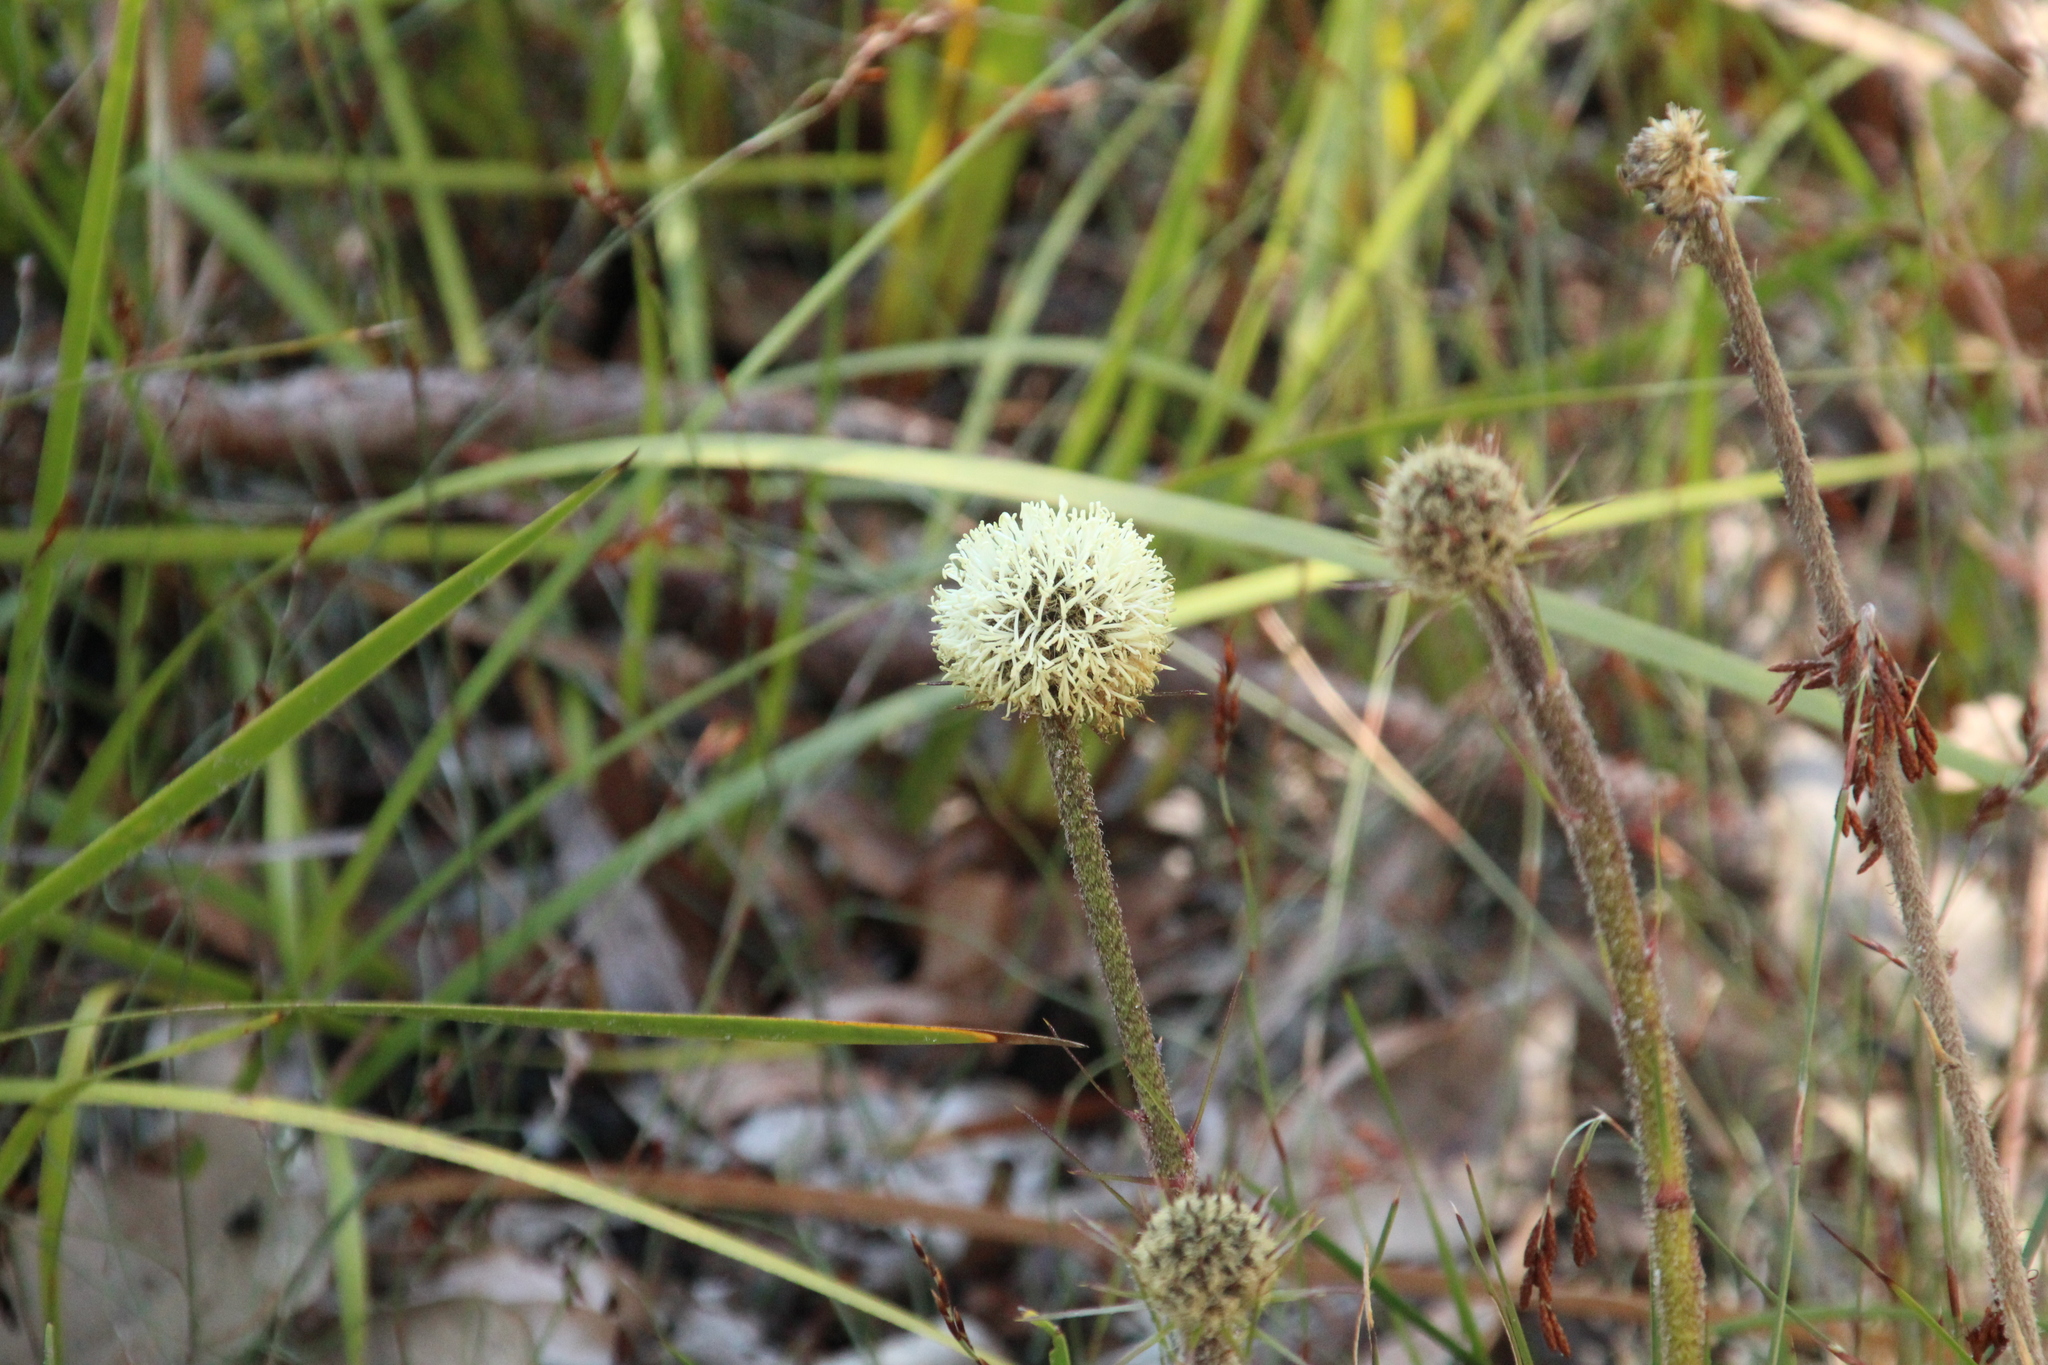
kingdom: Plantae
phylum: Tracheophyta
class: Liliopsida
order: Arecales
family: Dasypogonaceae
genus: Dasypogon
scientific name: Dasypogon bromeliifolius
